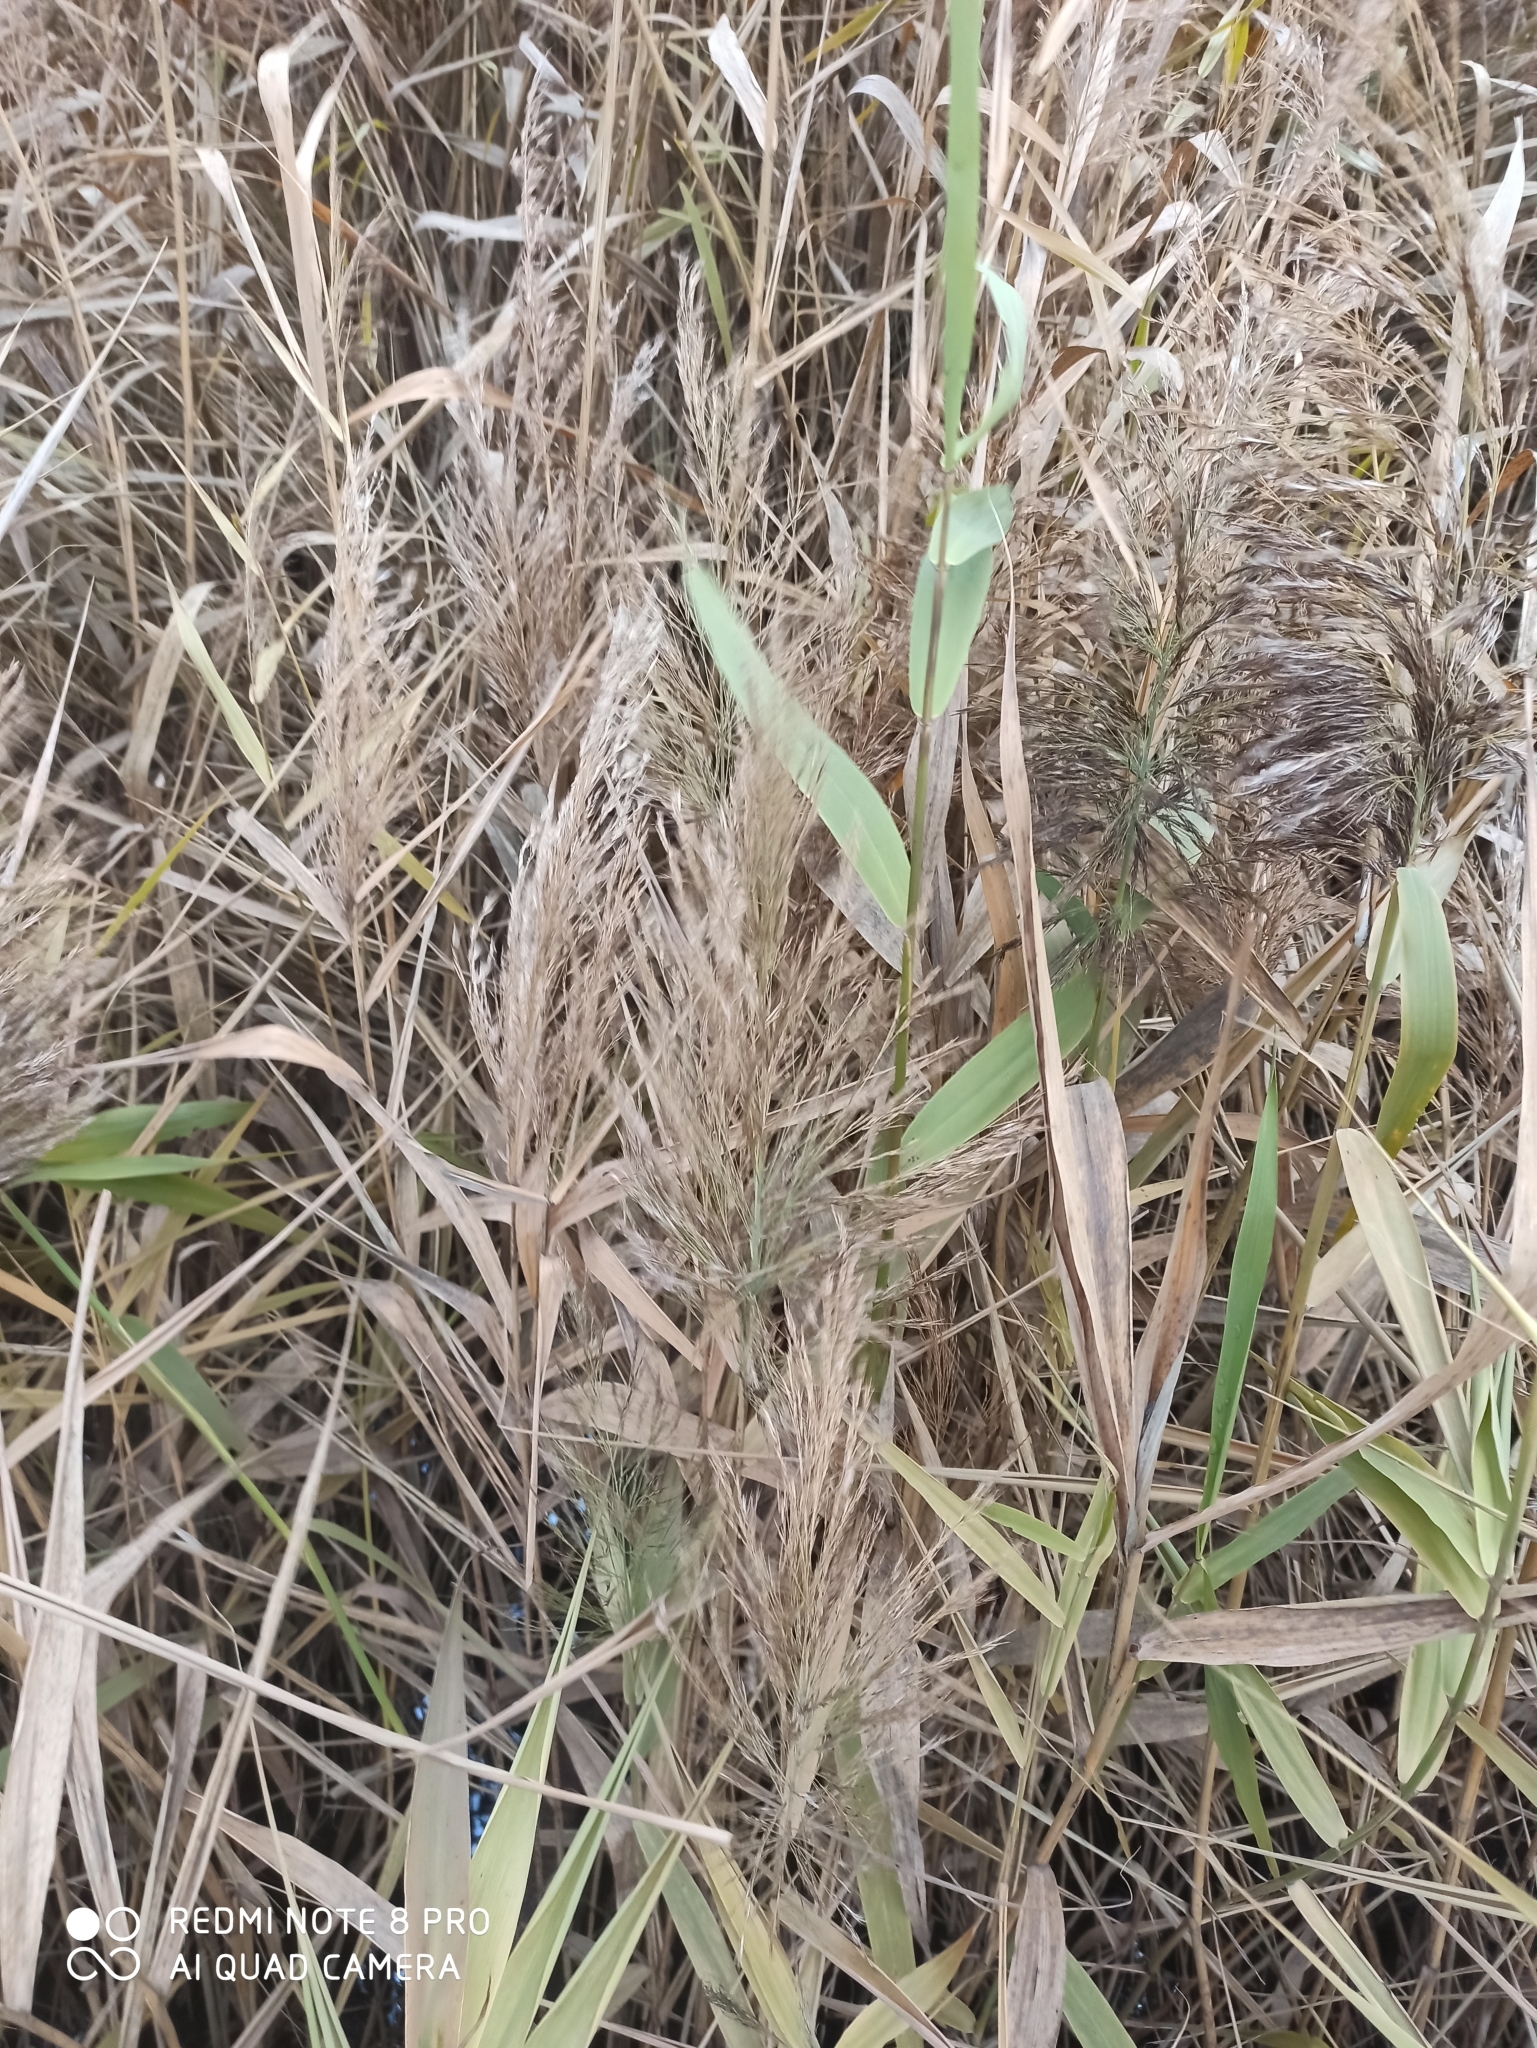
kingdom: Plantae
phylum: Tracheophyta
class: Liliopsida
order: Poales
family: Poaceae
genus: Phragmites
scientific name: Phragmites australis
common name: Common reed
